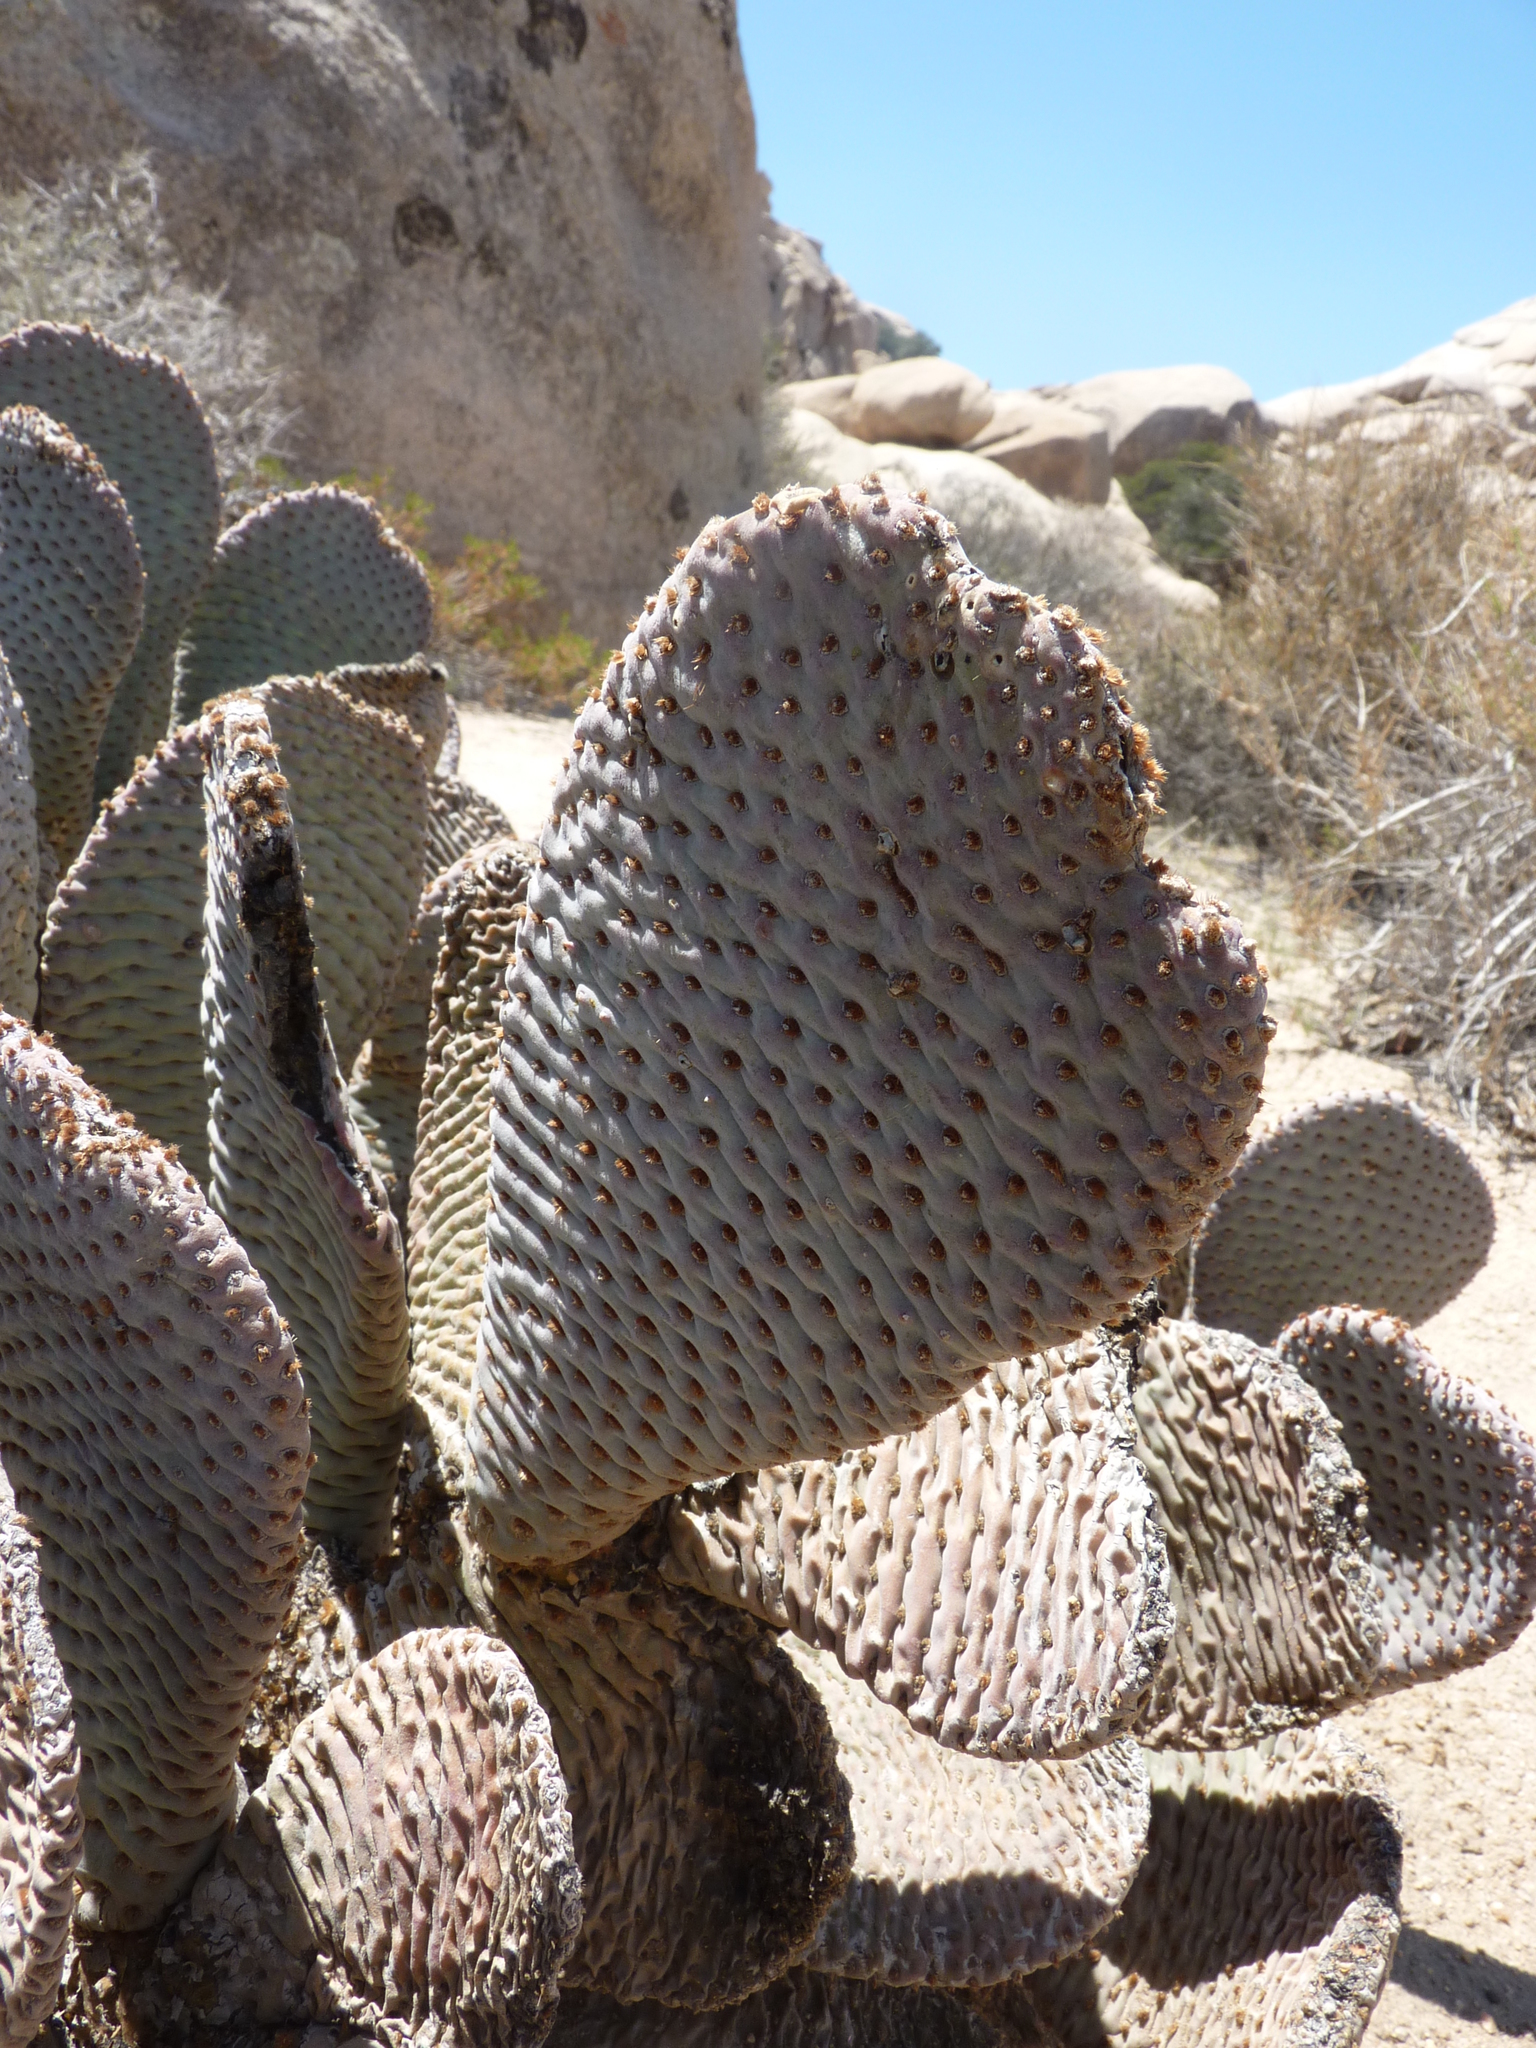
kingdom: Plantae
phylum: Tracheophyta
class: Magnoliopsida
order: Caryophyllales
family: Cactaceae
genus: Opuntia
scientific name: Opuntia basilaris
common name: Beavertail prickly-pear
